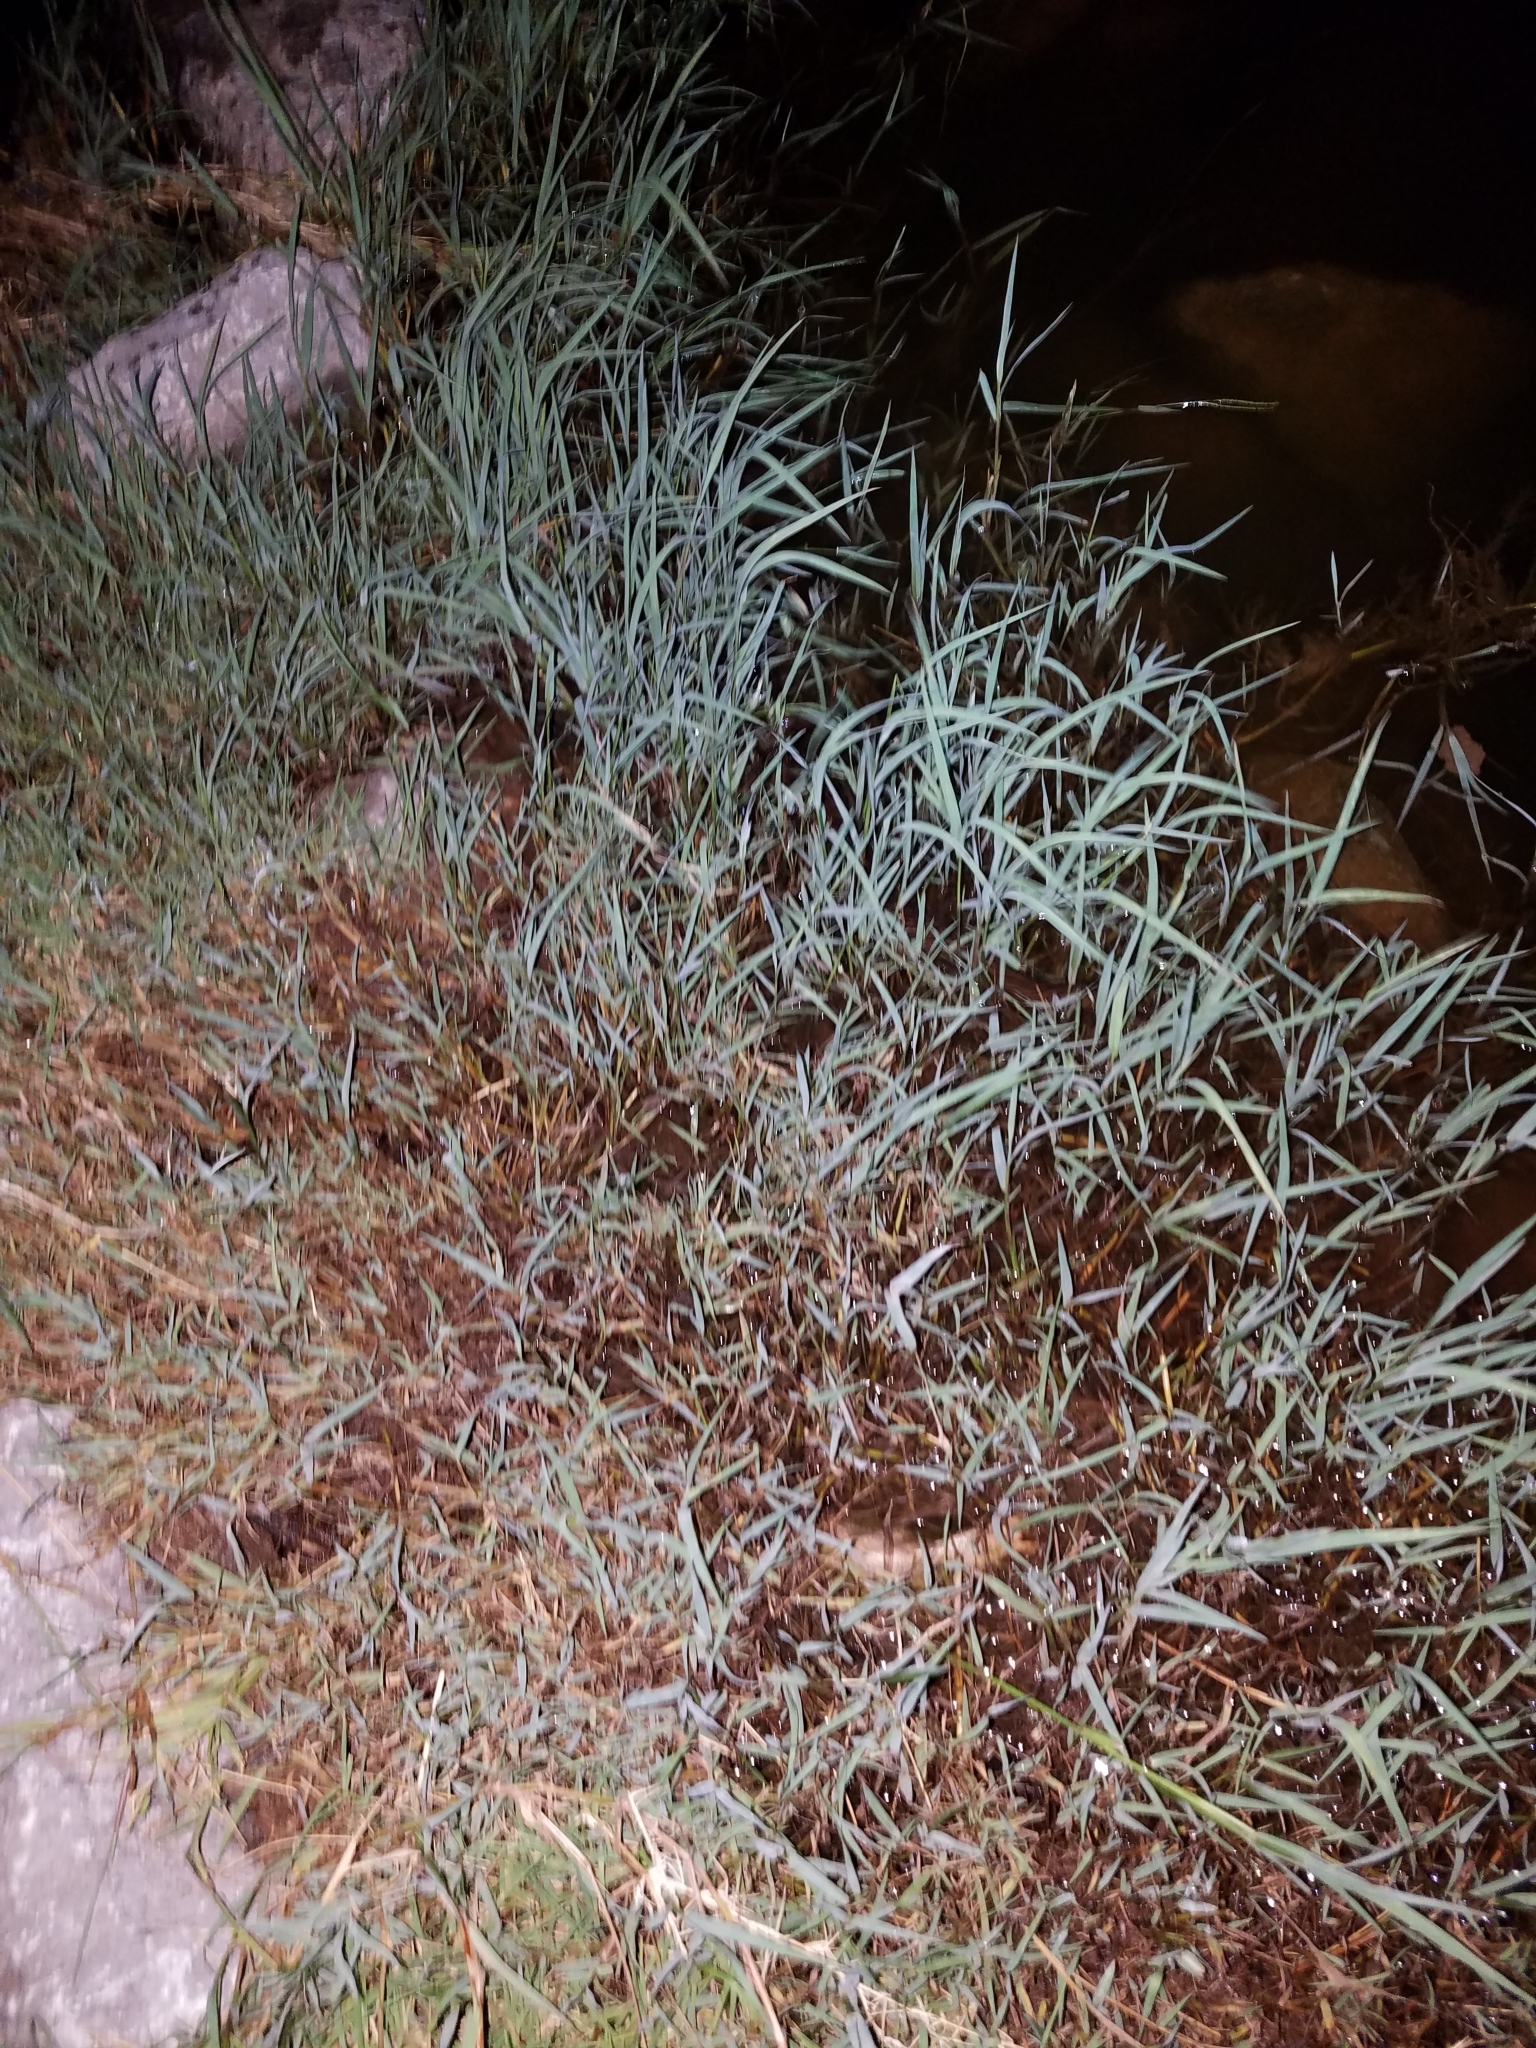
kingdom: Animalia
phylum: Chordata
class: Squamata
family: Colubridae
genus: Nerodia
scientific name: Nerodia rhombifer
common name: Diamondback water snake
